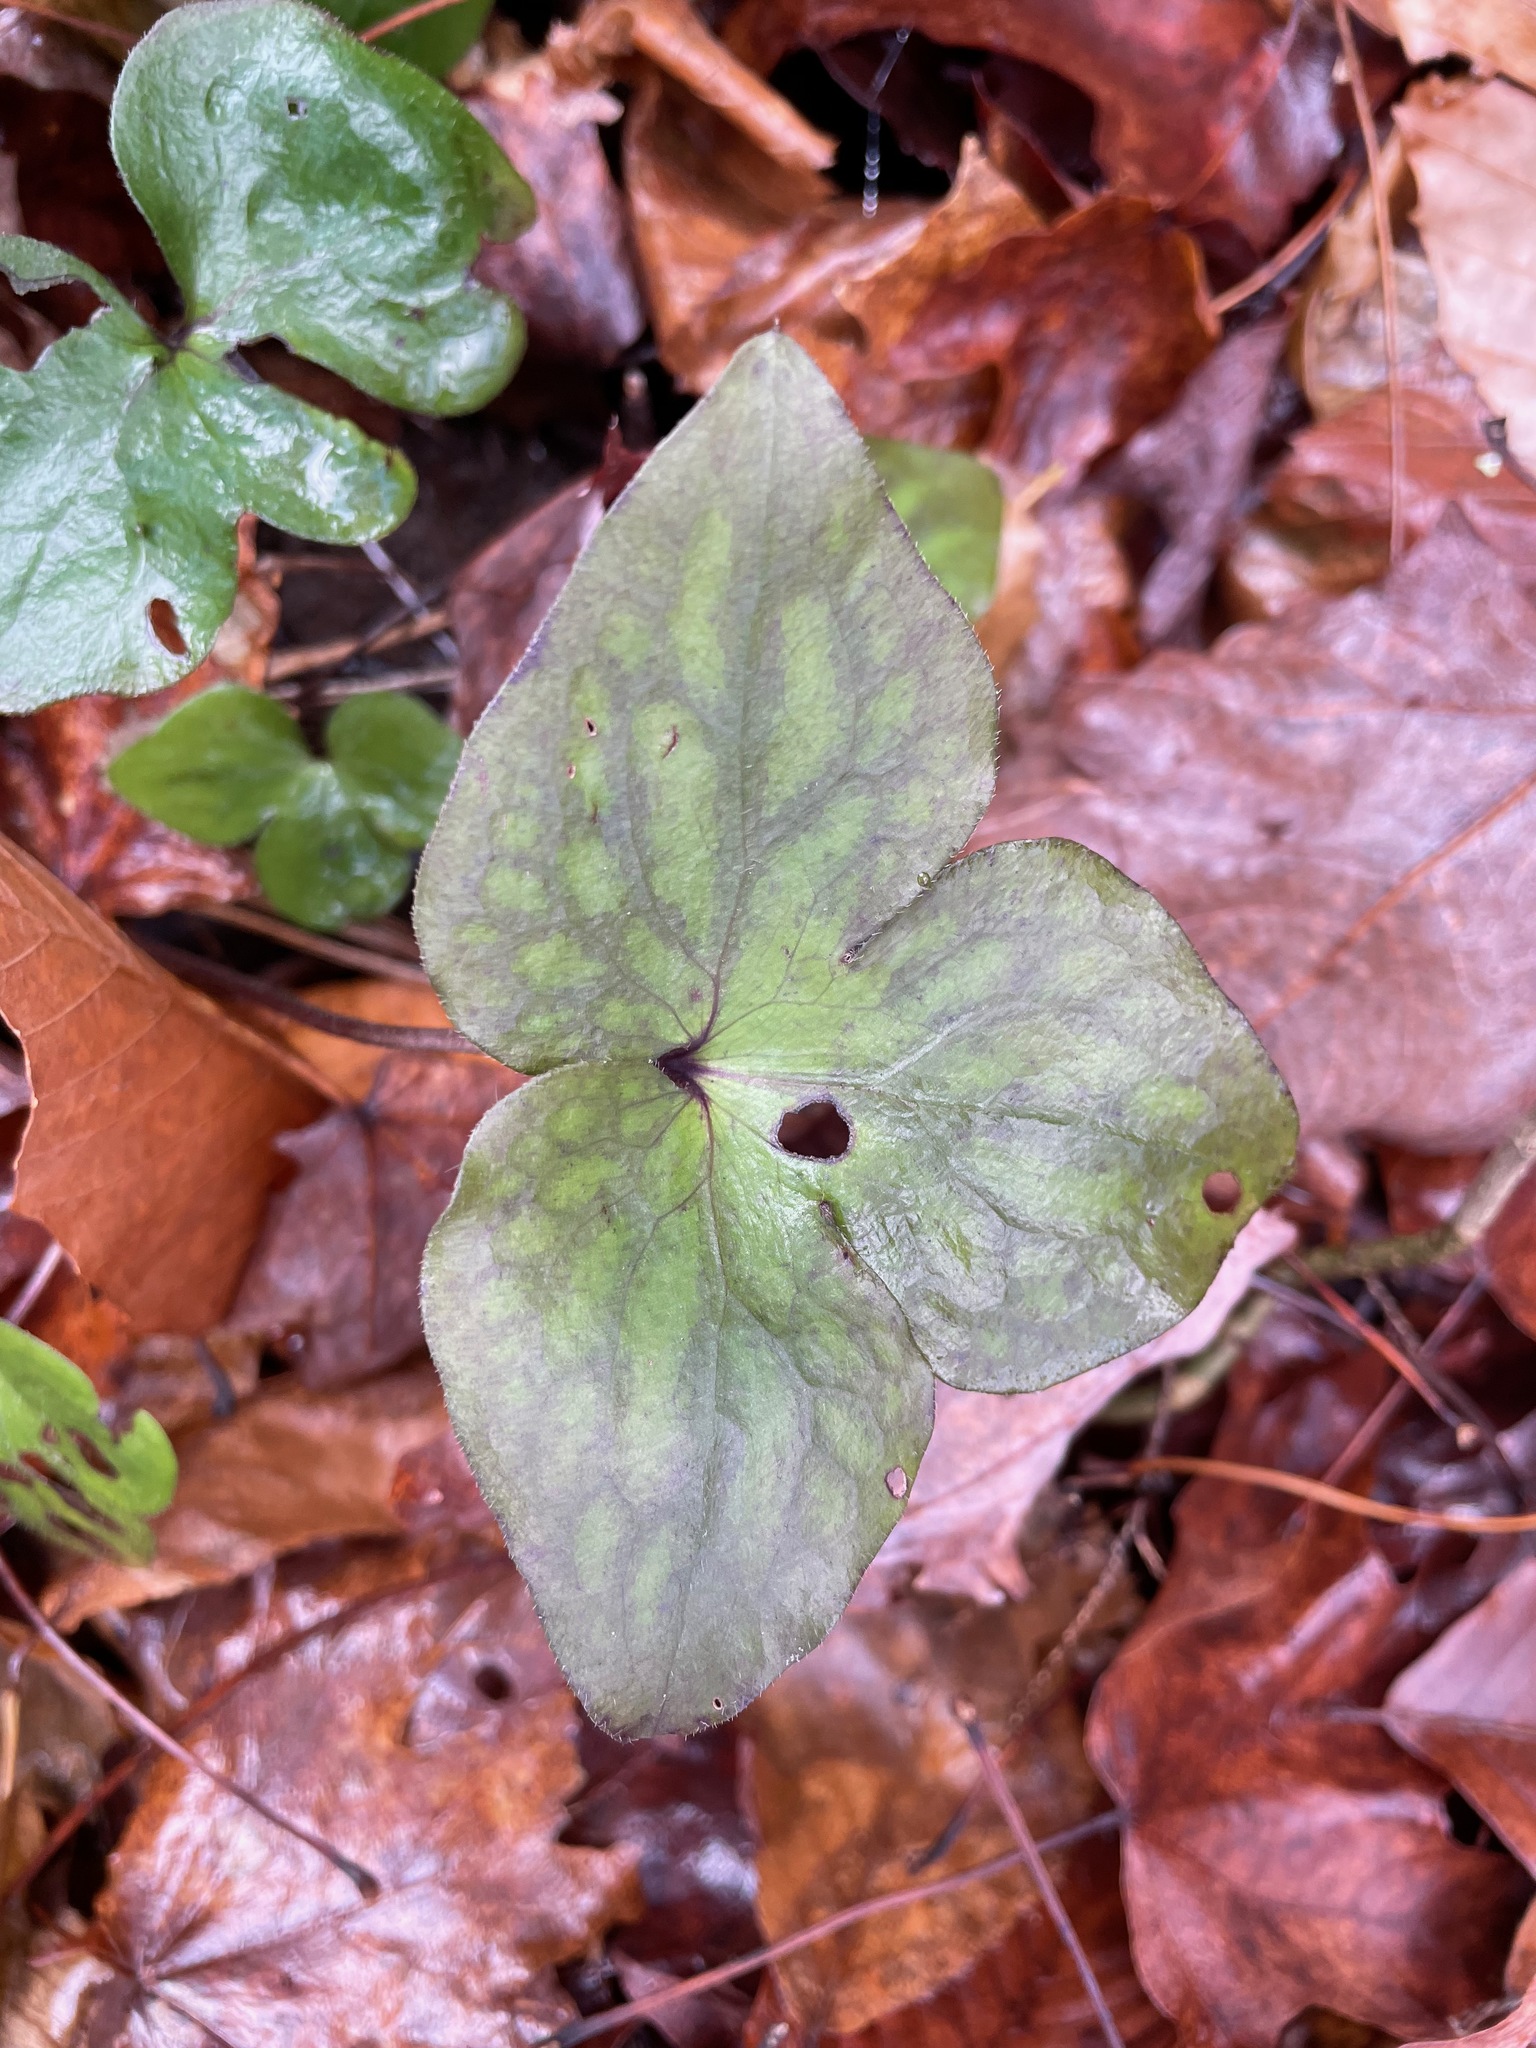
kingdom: Plantae
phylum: Tracheophyta
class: Magnoliopsida
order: Ranunculales
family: Ranunculaceae
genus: Hepatica
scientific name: Hepatica acutiloba
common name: Sharp-lobed hepatica
